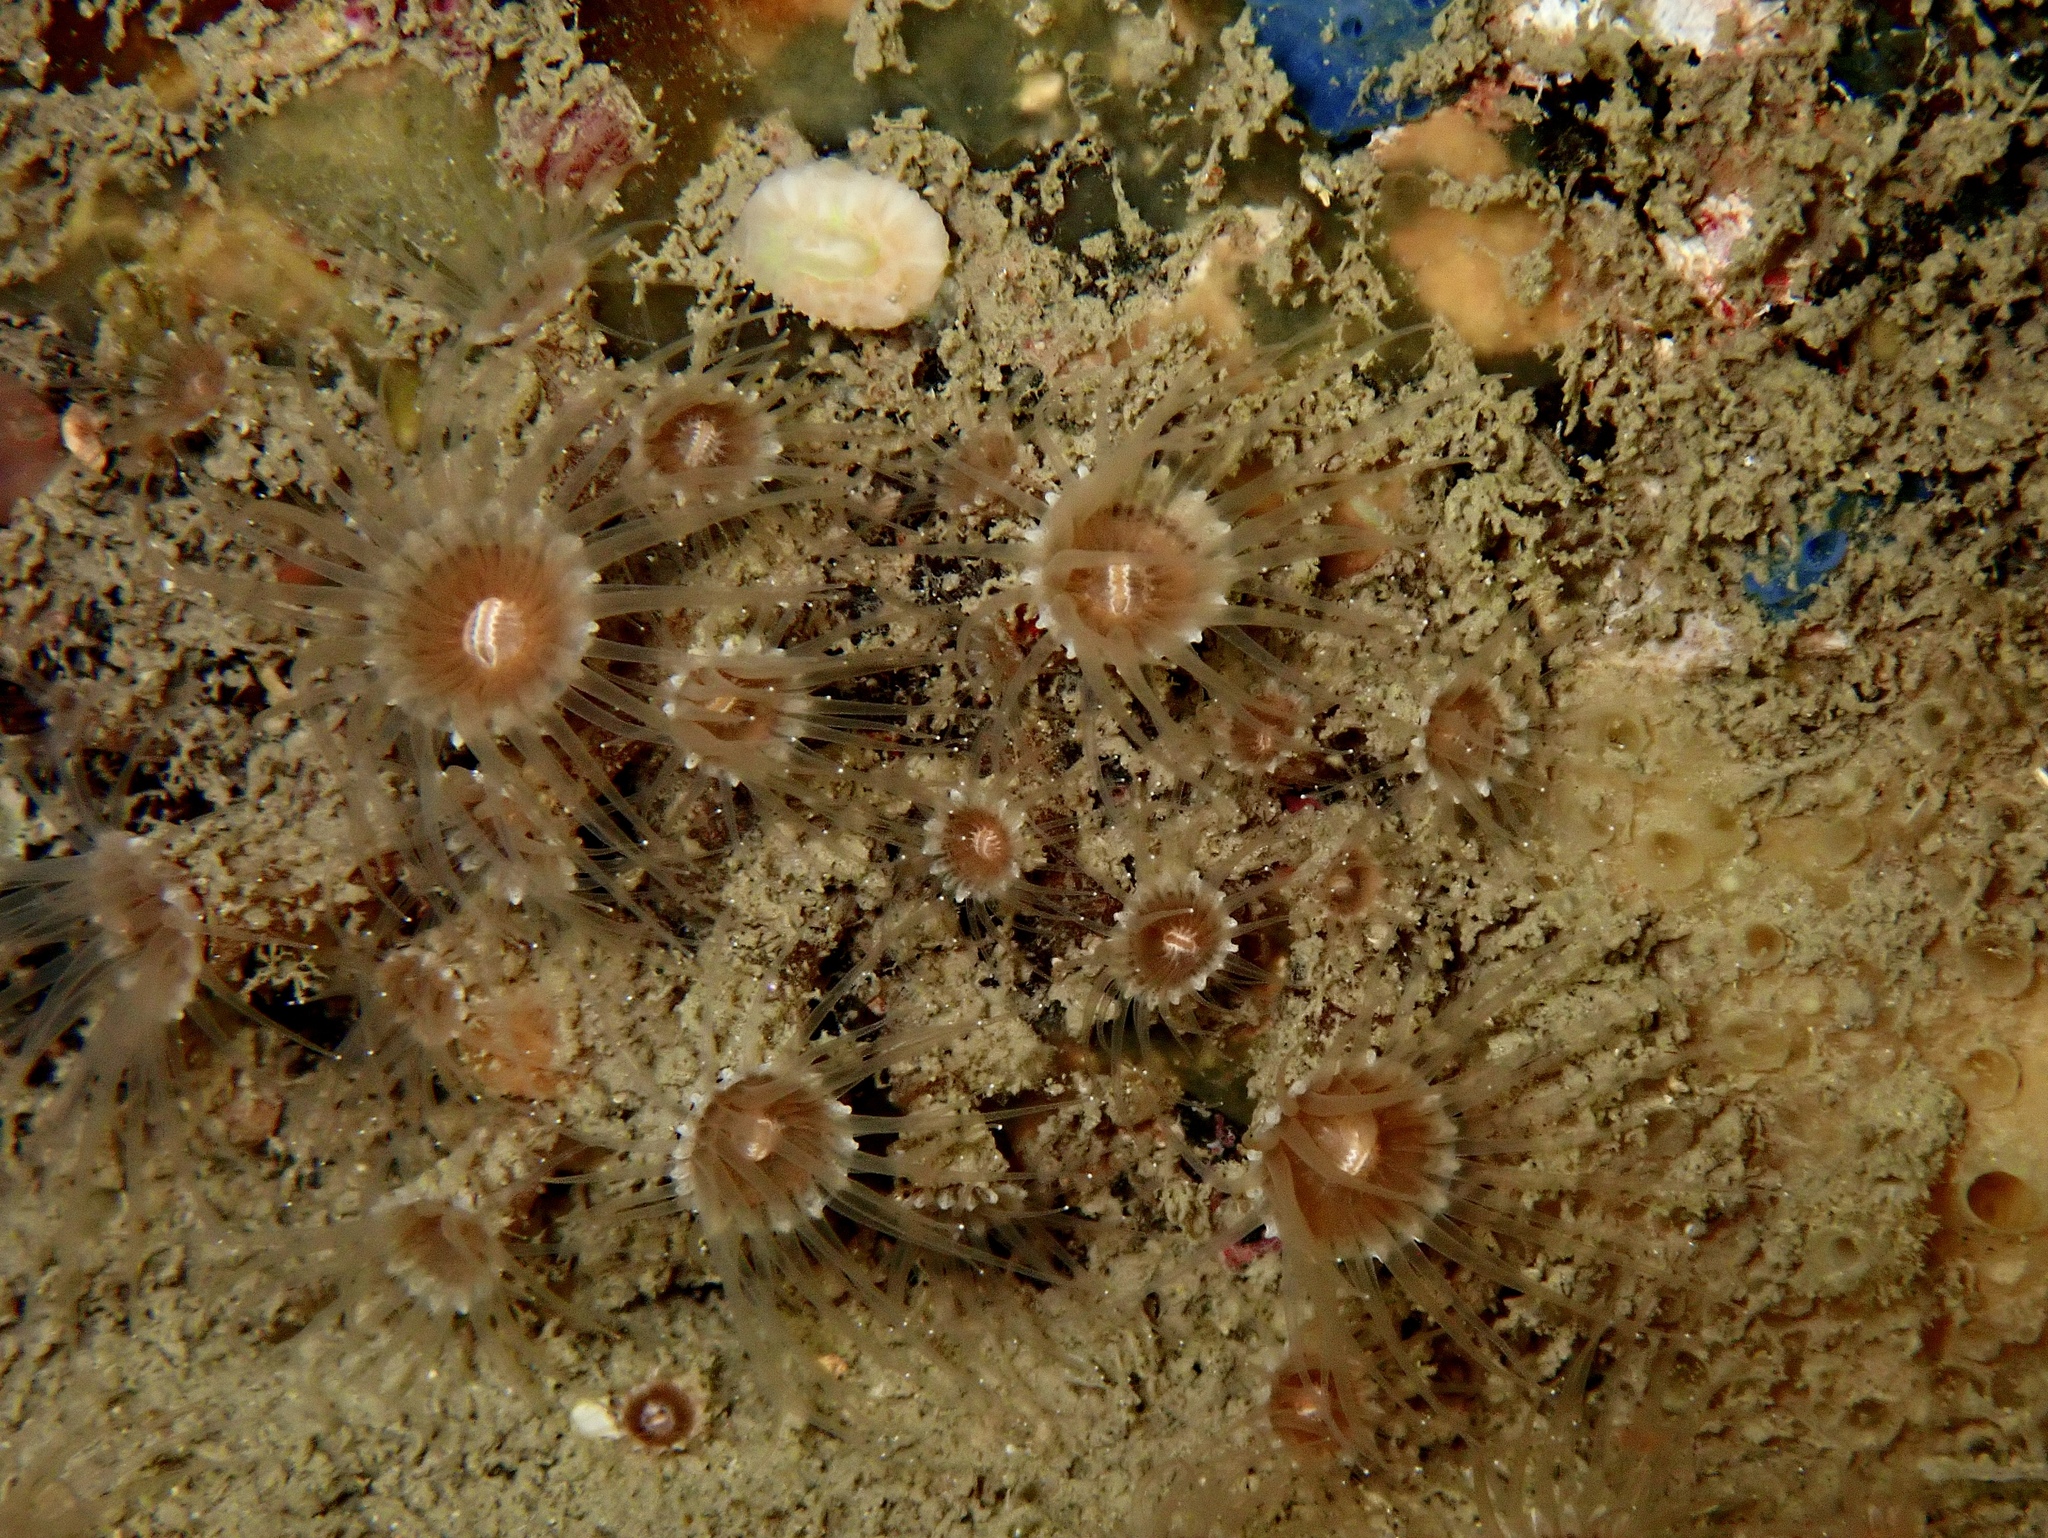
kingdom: Animalia
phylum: Cnidaria
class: Anthozoa
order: Zoantharia
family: Epizoanthidae
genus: Epizoanthus
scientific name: Epizoanthus couchii
